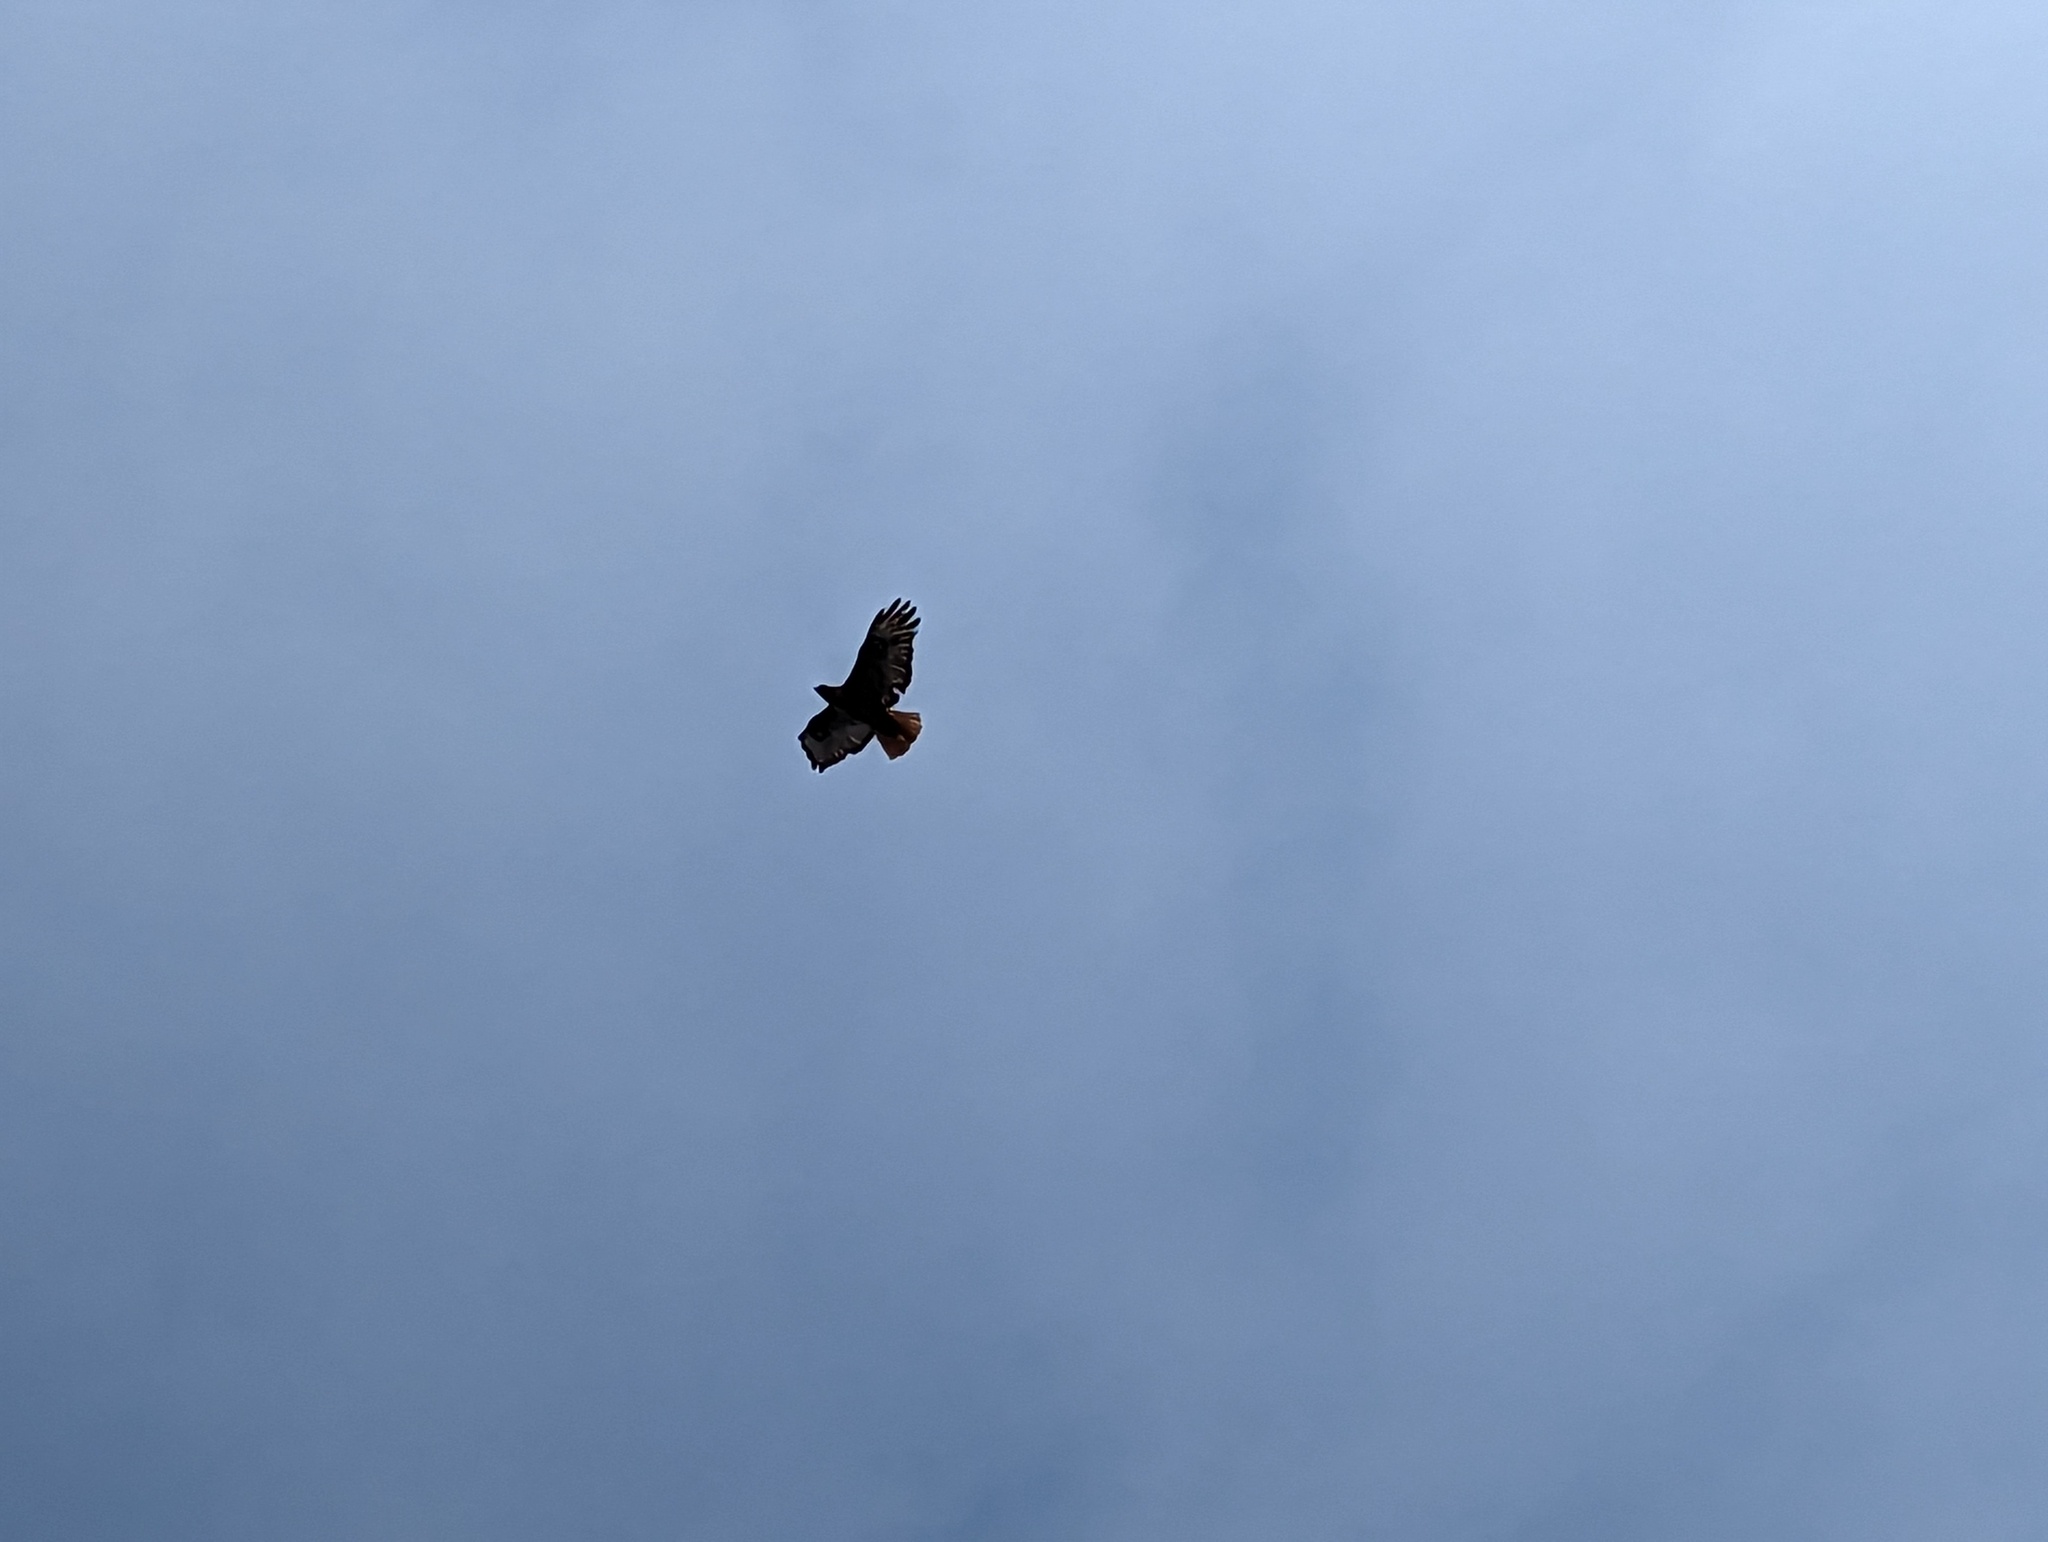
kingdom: Animalia
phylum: Chordata
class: Aves
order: Accipitriformes
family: Accipitridae
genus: Buteo
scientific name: Buteo jamaicensis
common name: Red-tailed hawk
